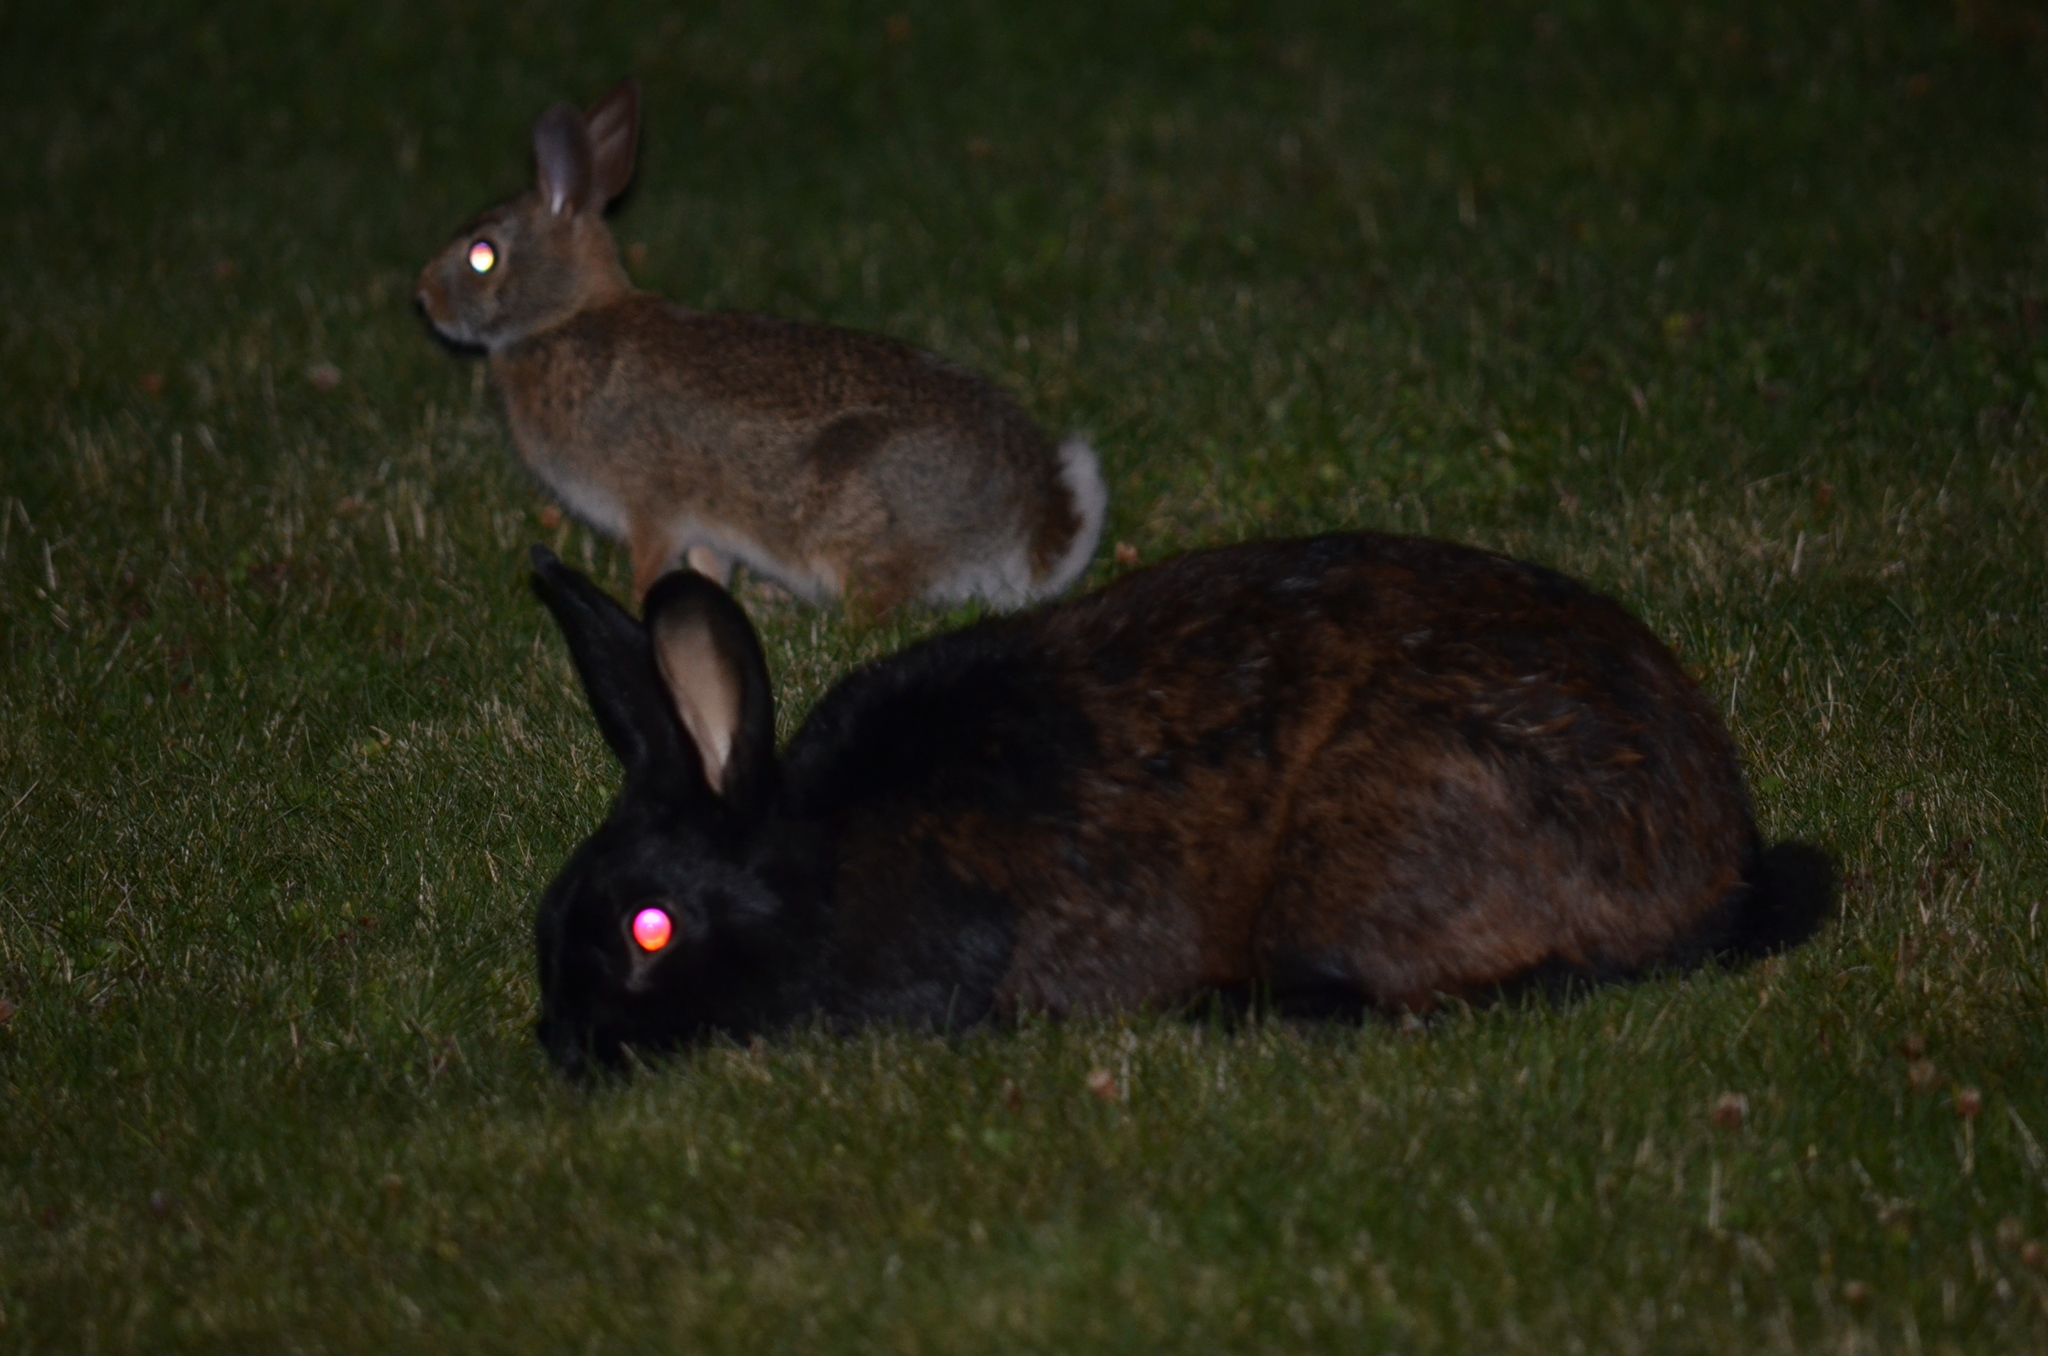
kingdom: Animalia
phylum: Chordata
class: Mammalia
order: Lagomorpha
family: Leporidae
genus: Oryctolagus
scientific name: Oryctolagus cuniculus
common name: European rabbit
